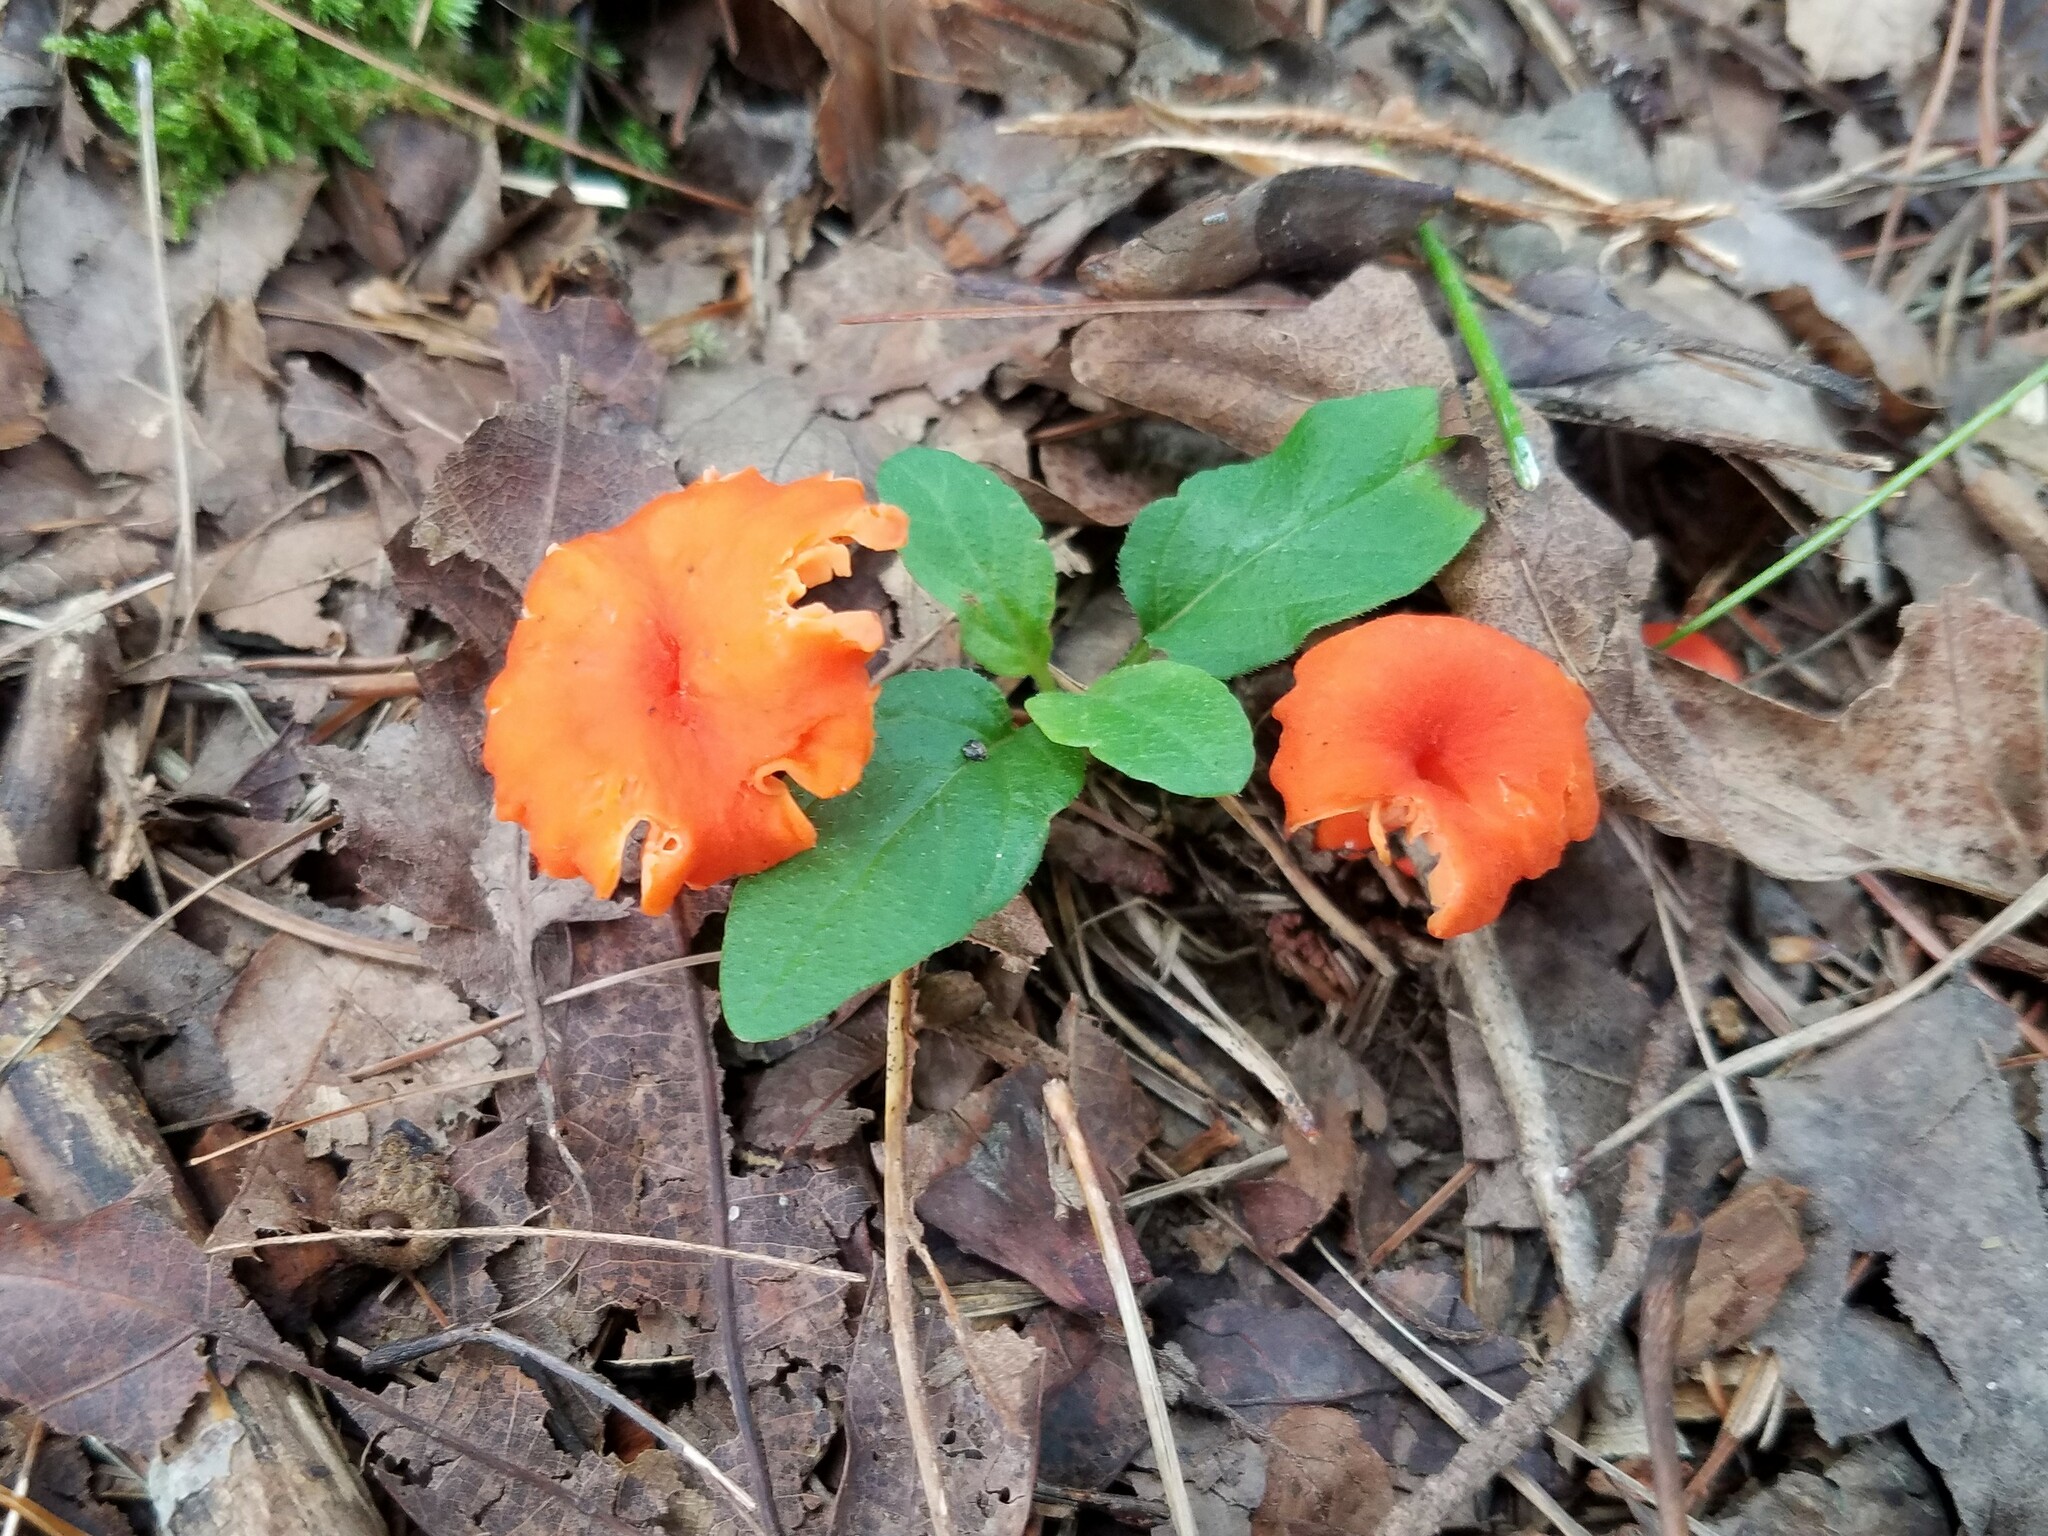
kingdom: Fungi
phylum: Basidiomycota
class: Agaricomycetes
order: Cantharellales
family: Hydnaceae
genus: Cantharellus
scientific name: Cantharellus cinnabarinus
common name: Cinnabar chanterelle
